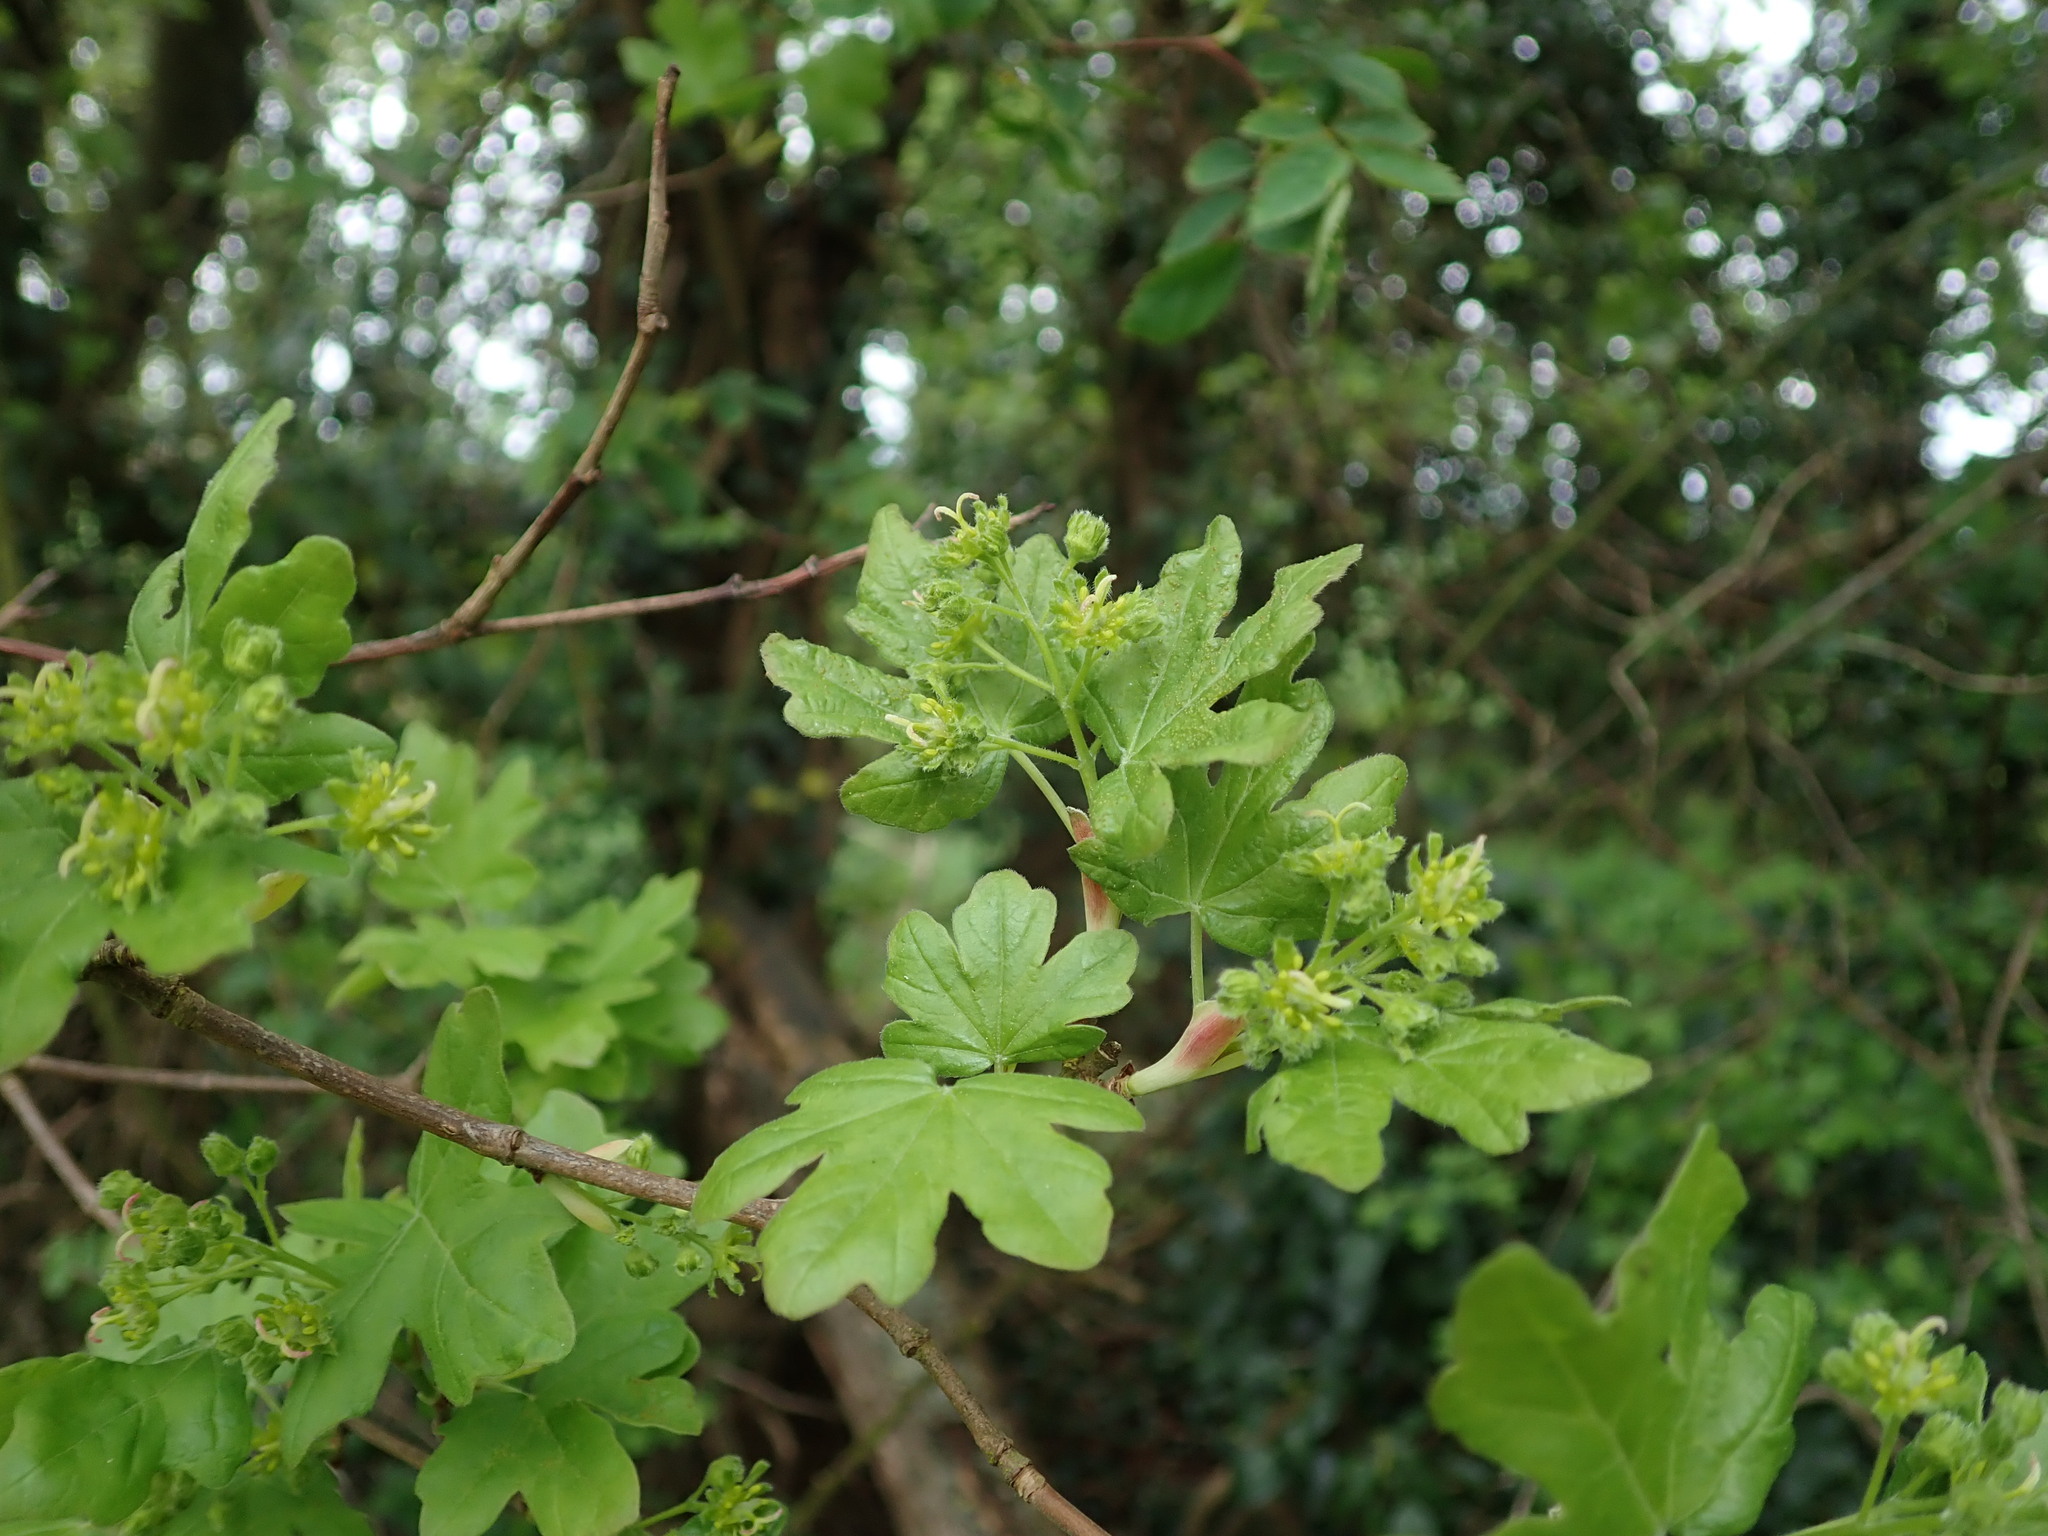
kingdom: Plantae
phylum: Tracheophyta
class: Magnoliopsida
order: Sapindales
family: Sapindaceae
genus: Acer
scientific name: Acer campestre
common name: Field maple
